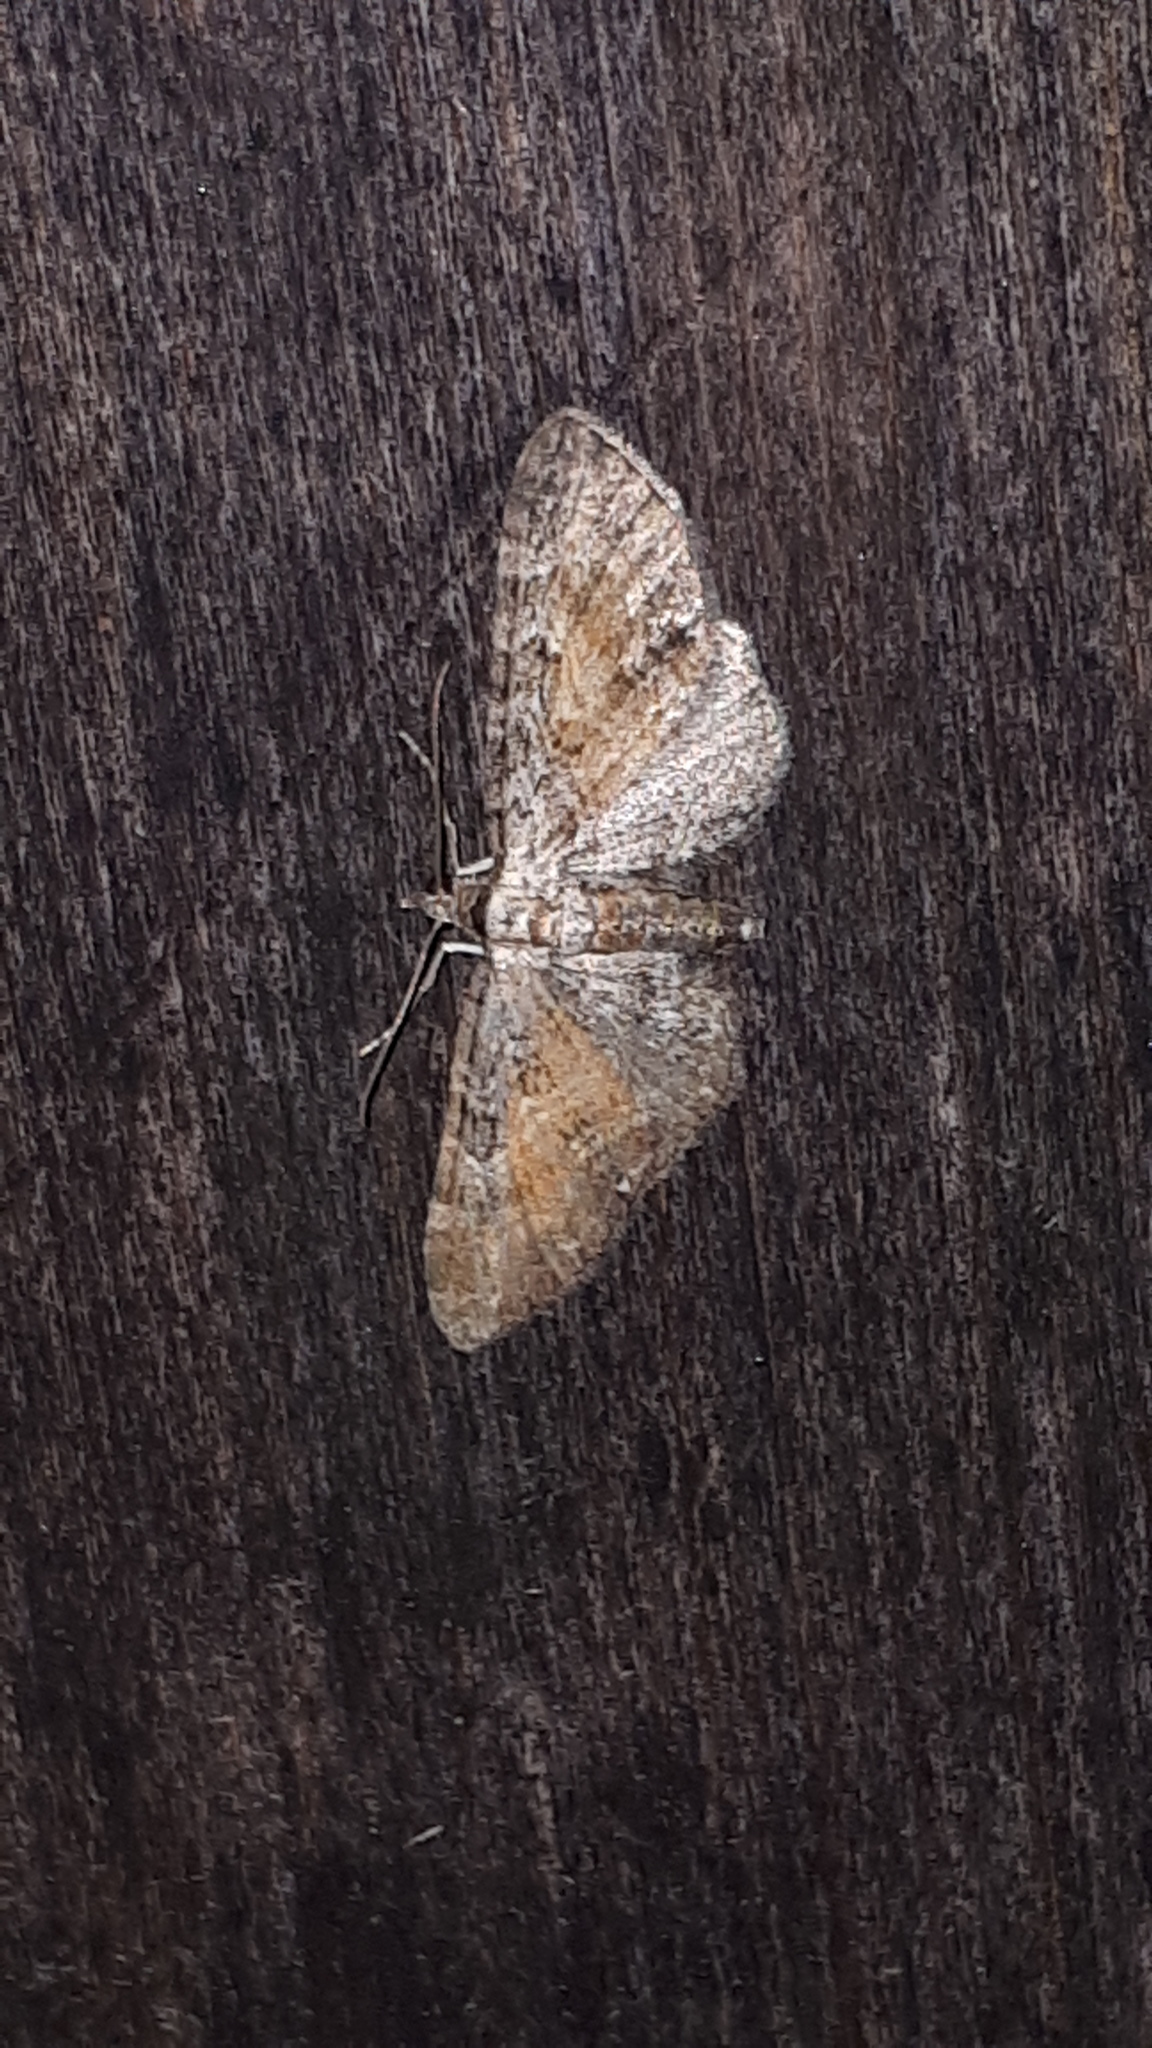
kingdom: Animalia
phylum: Arthropoda
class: Insecta
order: Lepidoptera
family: Geometridae
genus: Eupithecia
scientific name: Eupithecia icterata
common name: Tawny speckled pug
